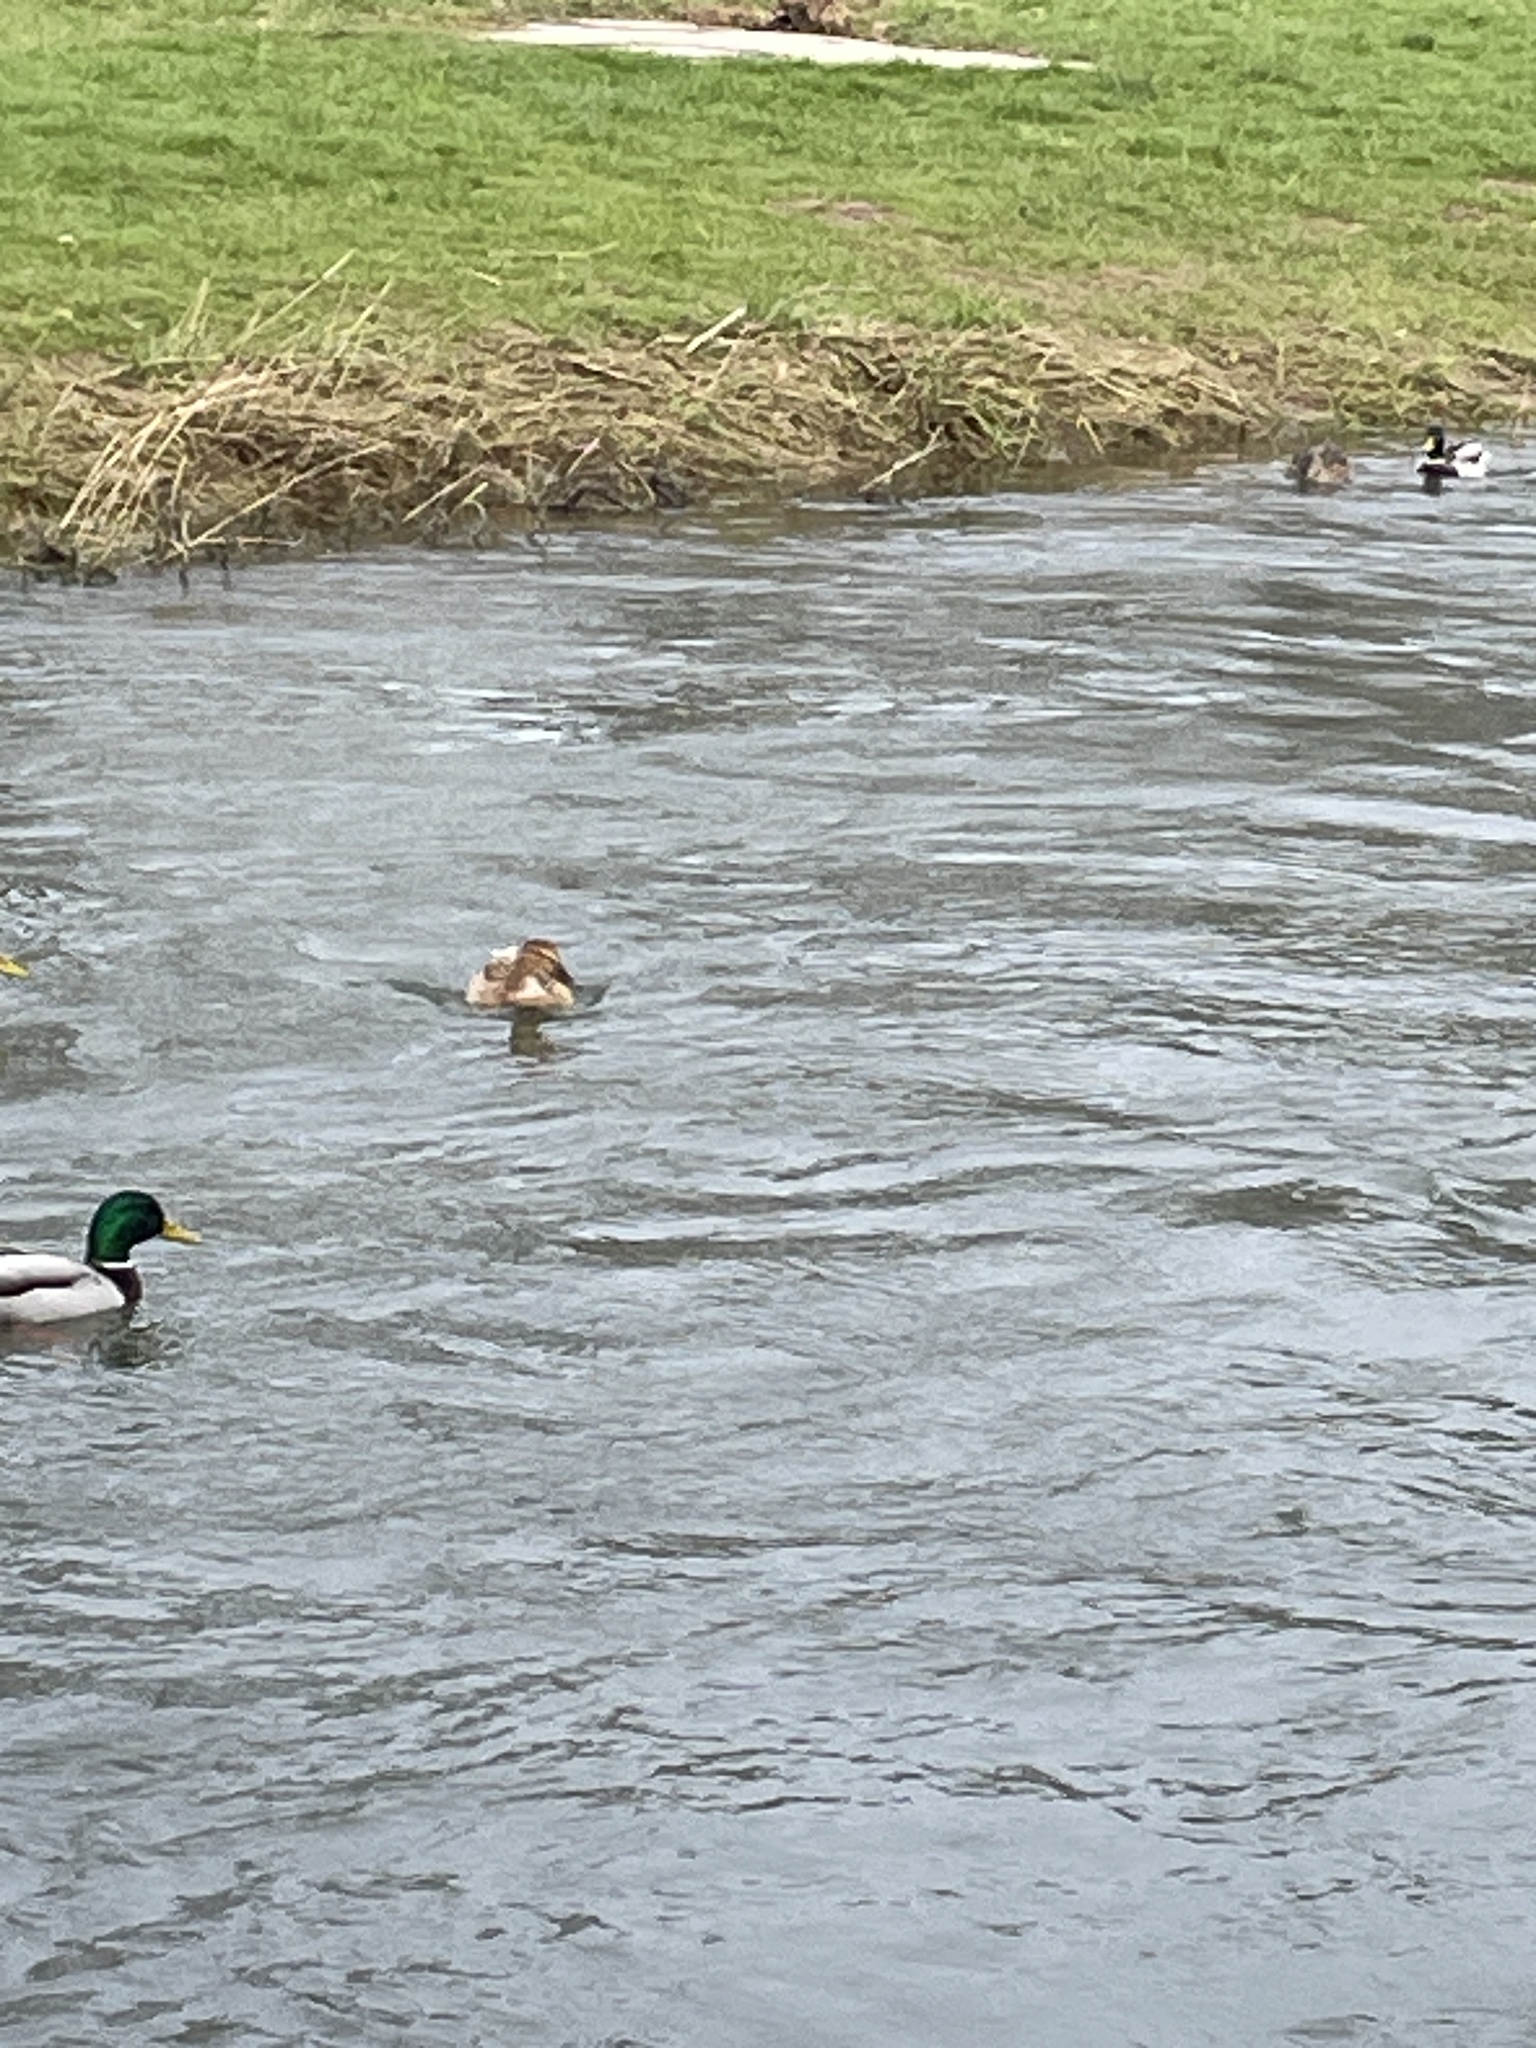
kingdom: Animalia
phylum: Chordata
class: Aves
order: Anseriformes
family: Anatidae
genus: Anas
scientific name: Anas platyrhynchos
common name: Mallard
